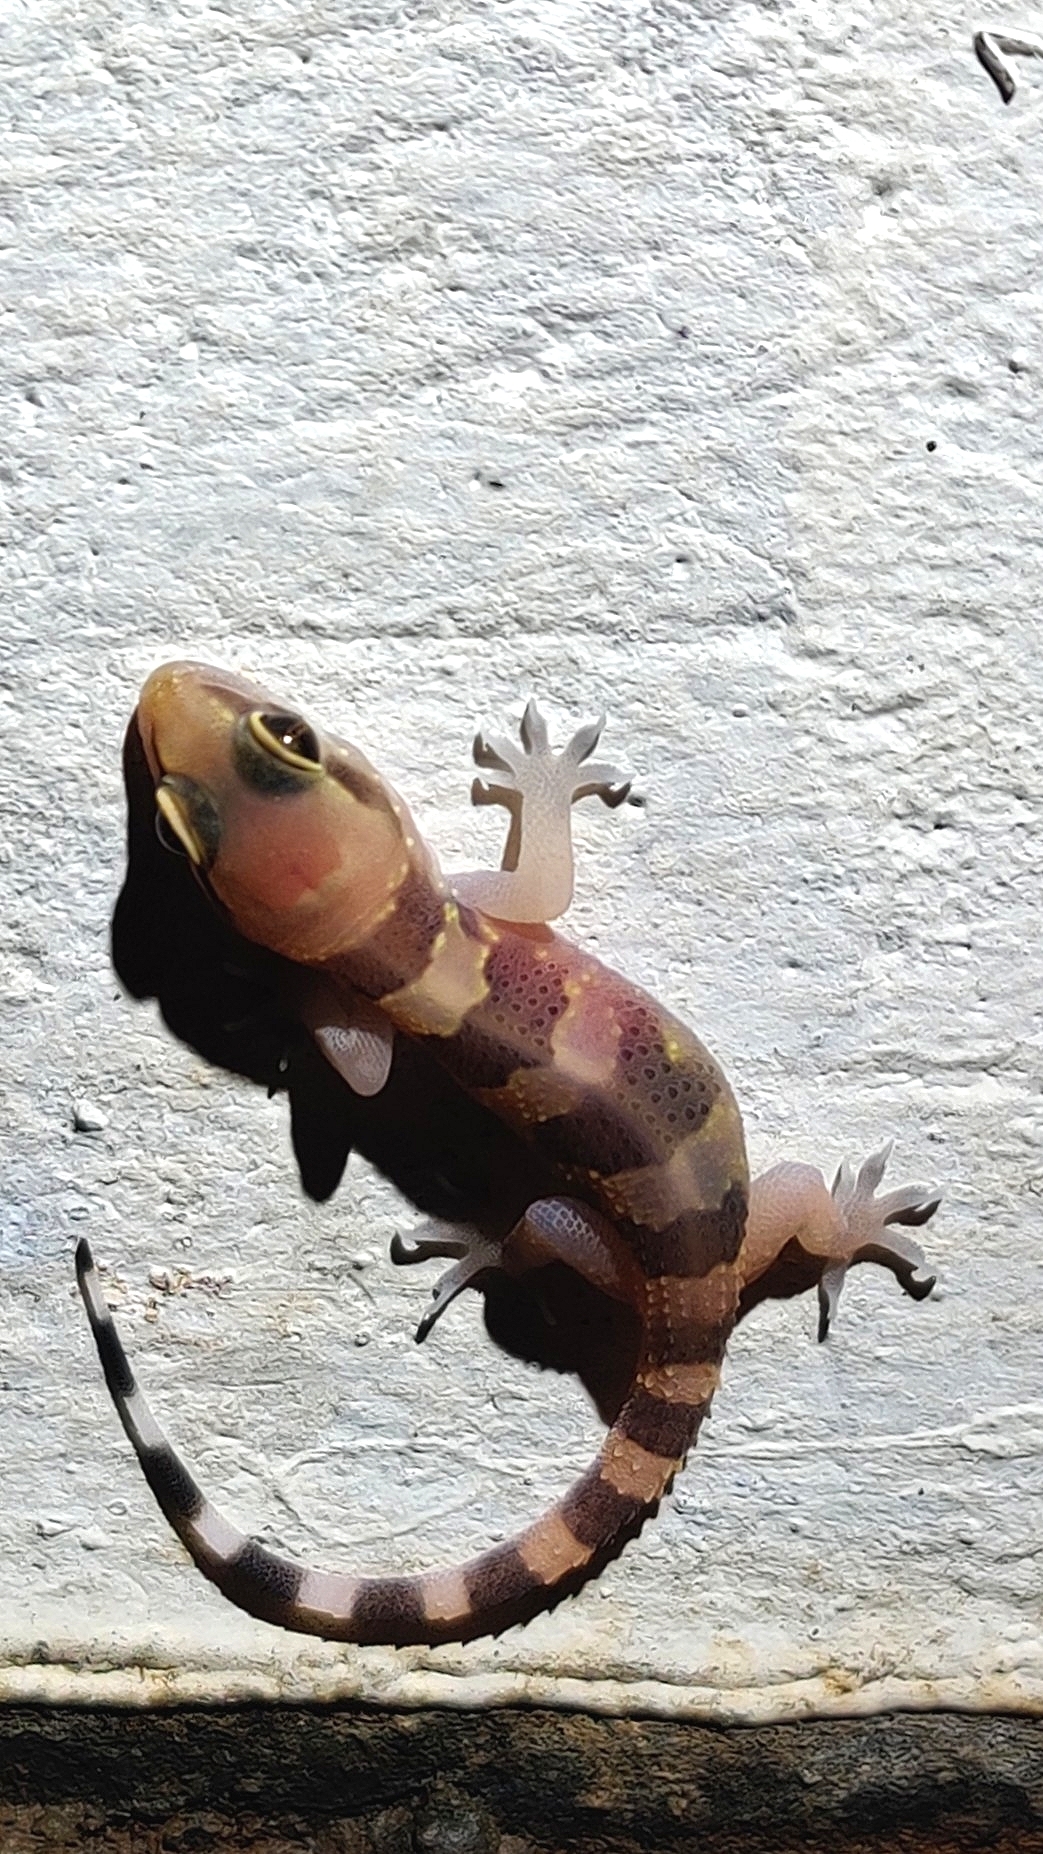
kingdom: Animalia
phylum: Chordata
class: Squamata
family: Gekkonidae
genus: Hemidactylus
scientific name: Hemidactylus whitakeri
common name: Whitaker’s termite hill gecko
